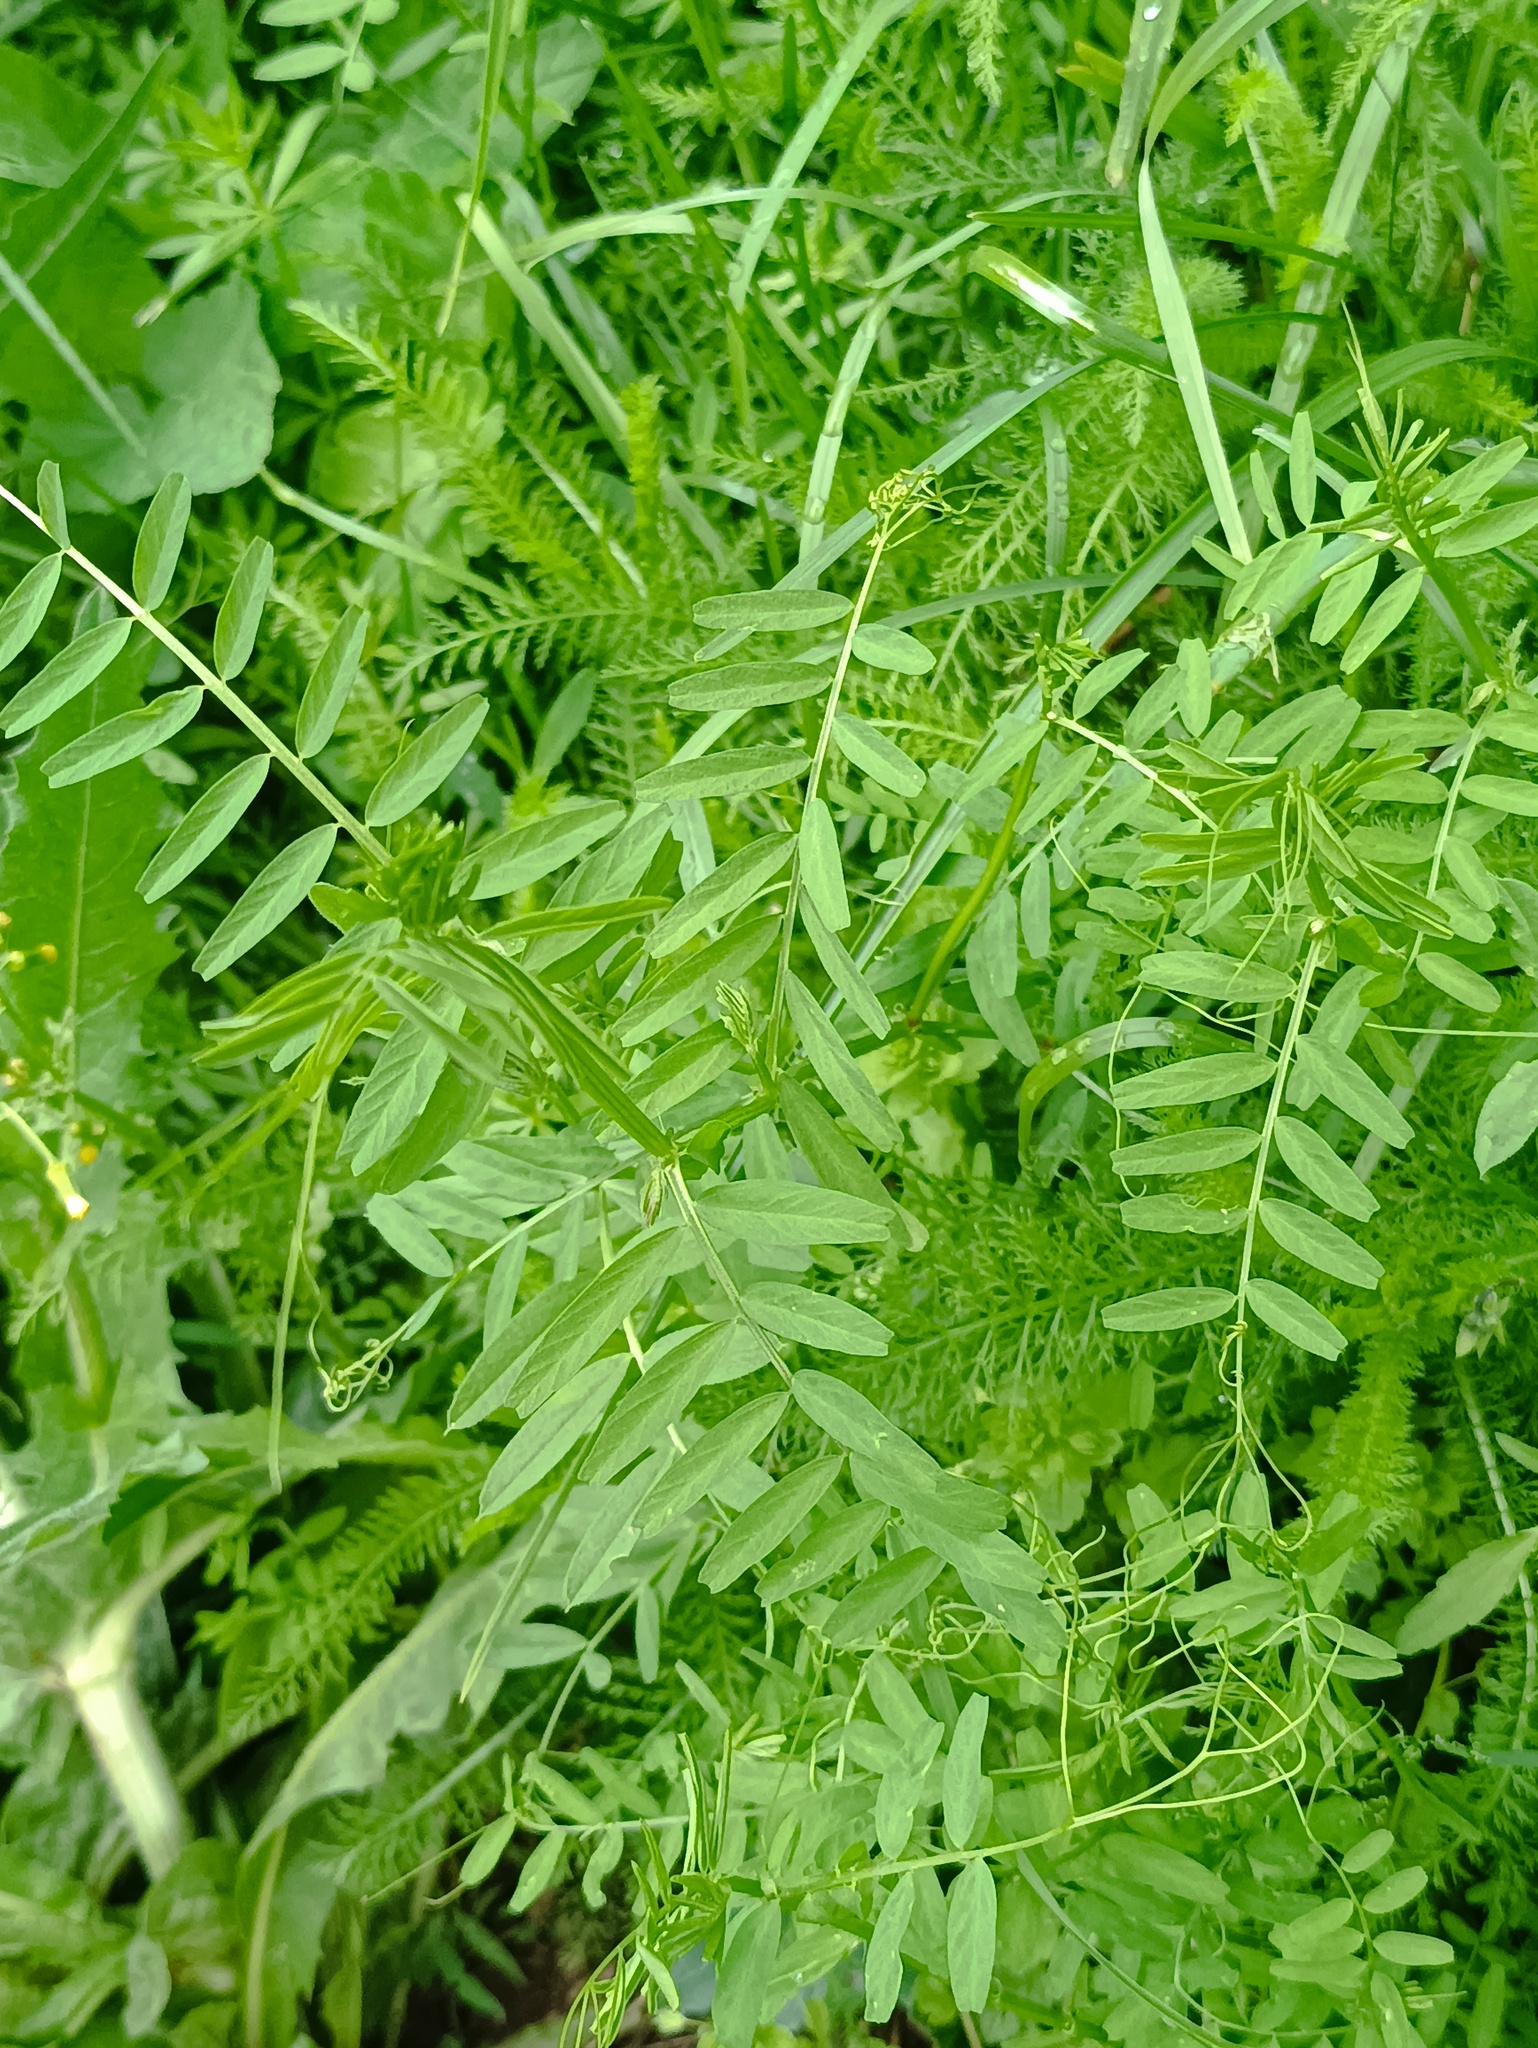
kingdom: Plantae
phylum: Tracheophyta
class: Magnoliopsida
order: Fabales
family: Fabaceae
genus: Vicia
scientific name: Vicia sepium
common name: Bush vetch
